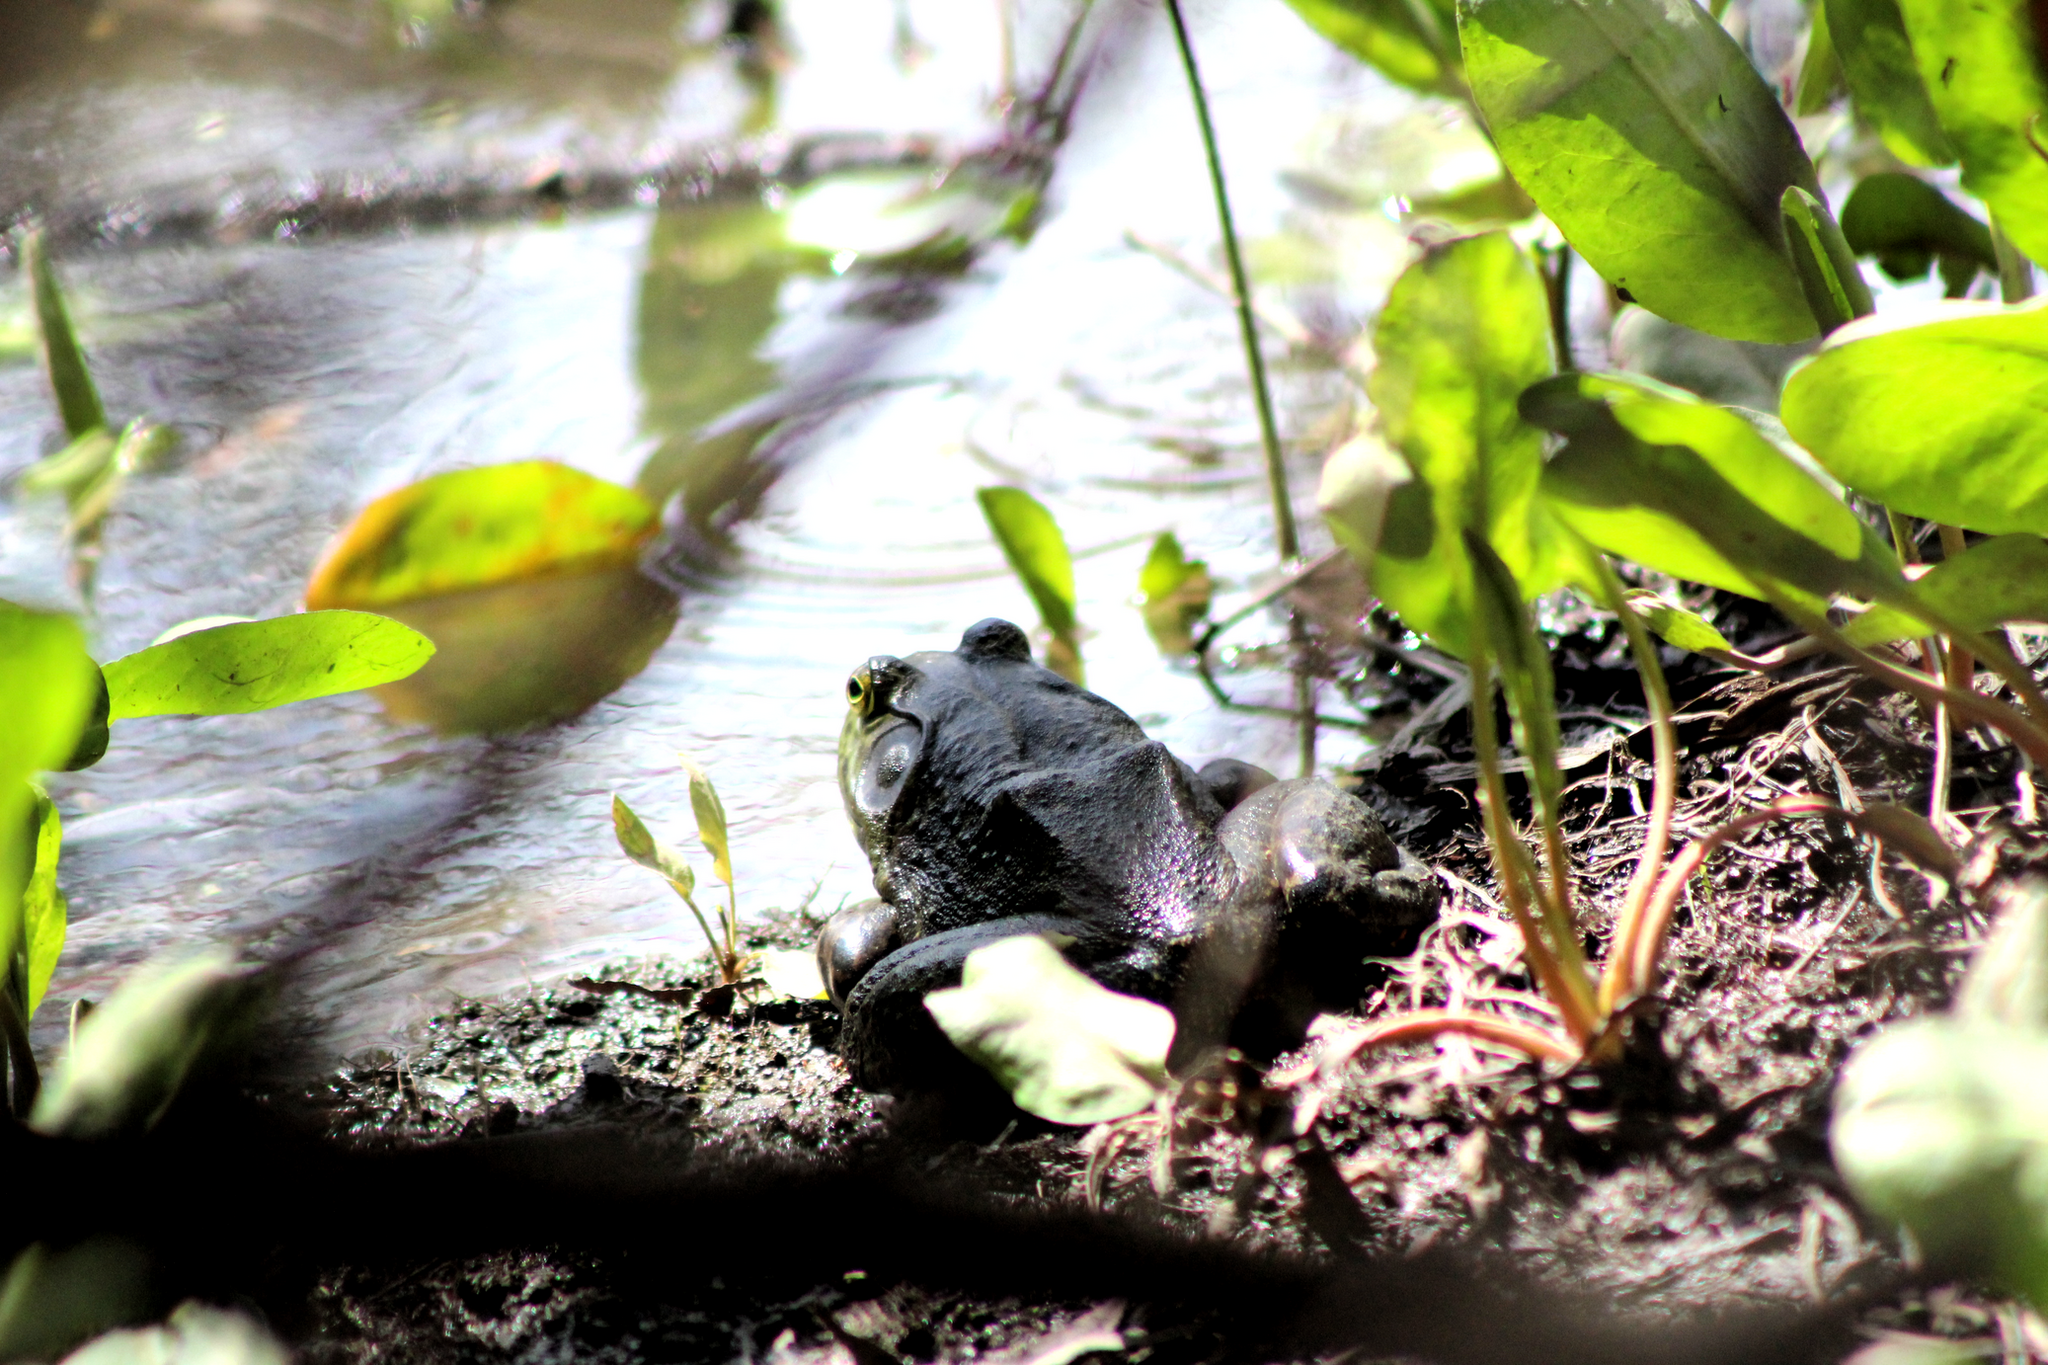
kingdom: Animalia
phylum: Chordata
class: Amphibia
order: Anura
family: Ranidae
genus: Lithobates
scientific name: Lithobates catesbeianus
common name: American bullfrog
